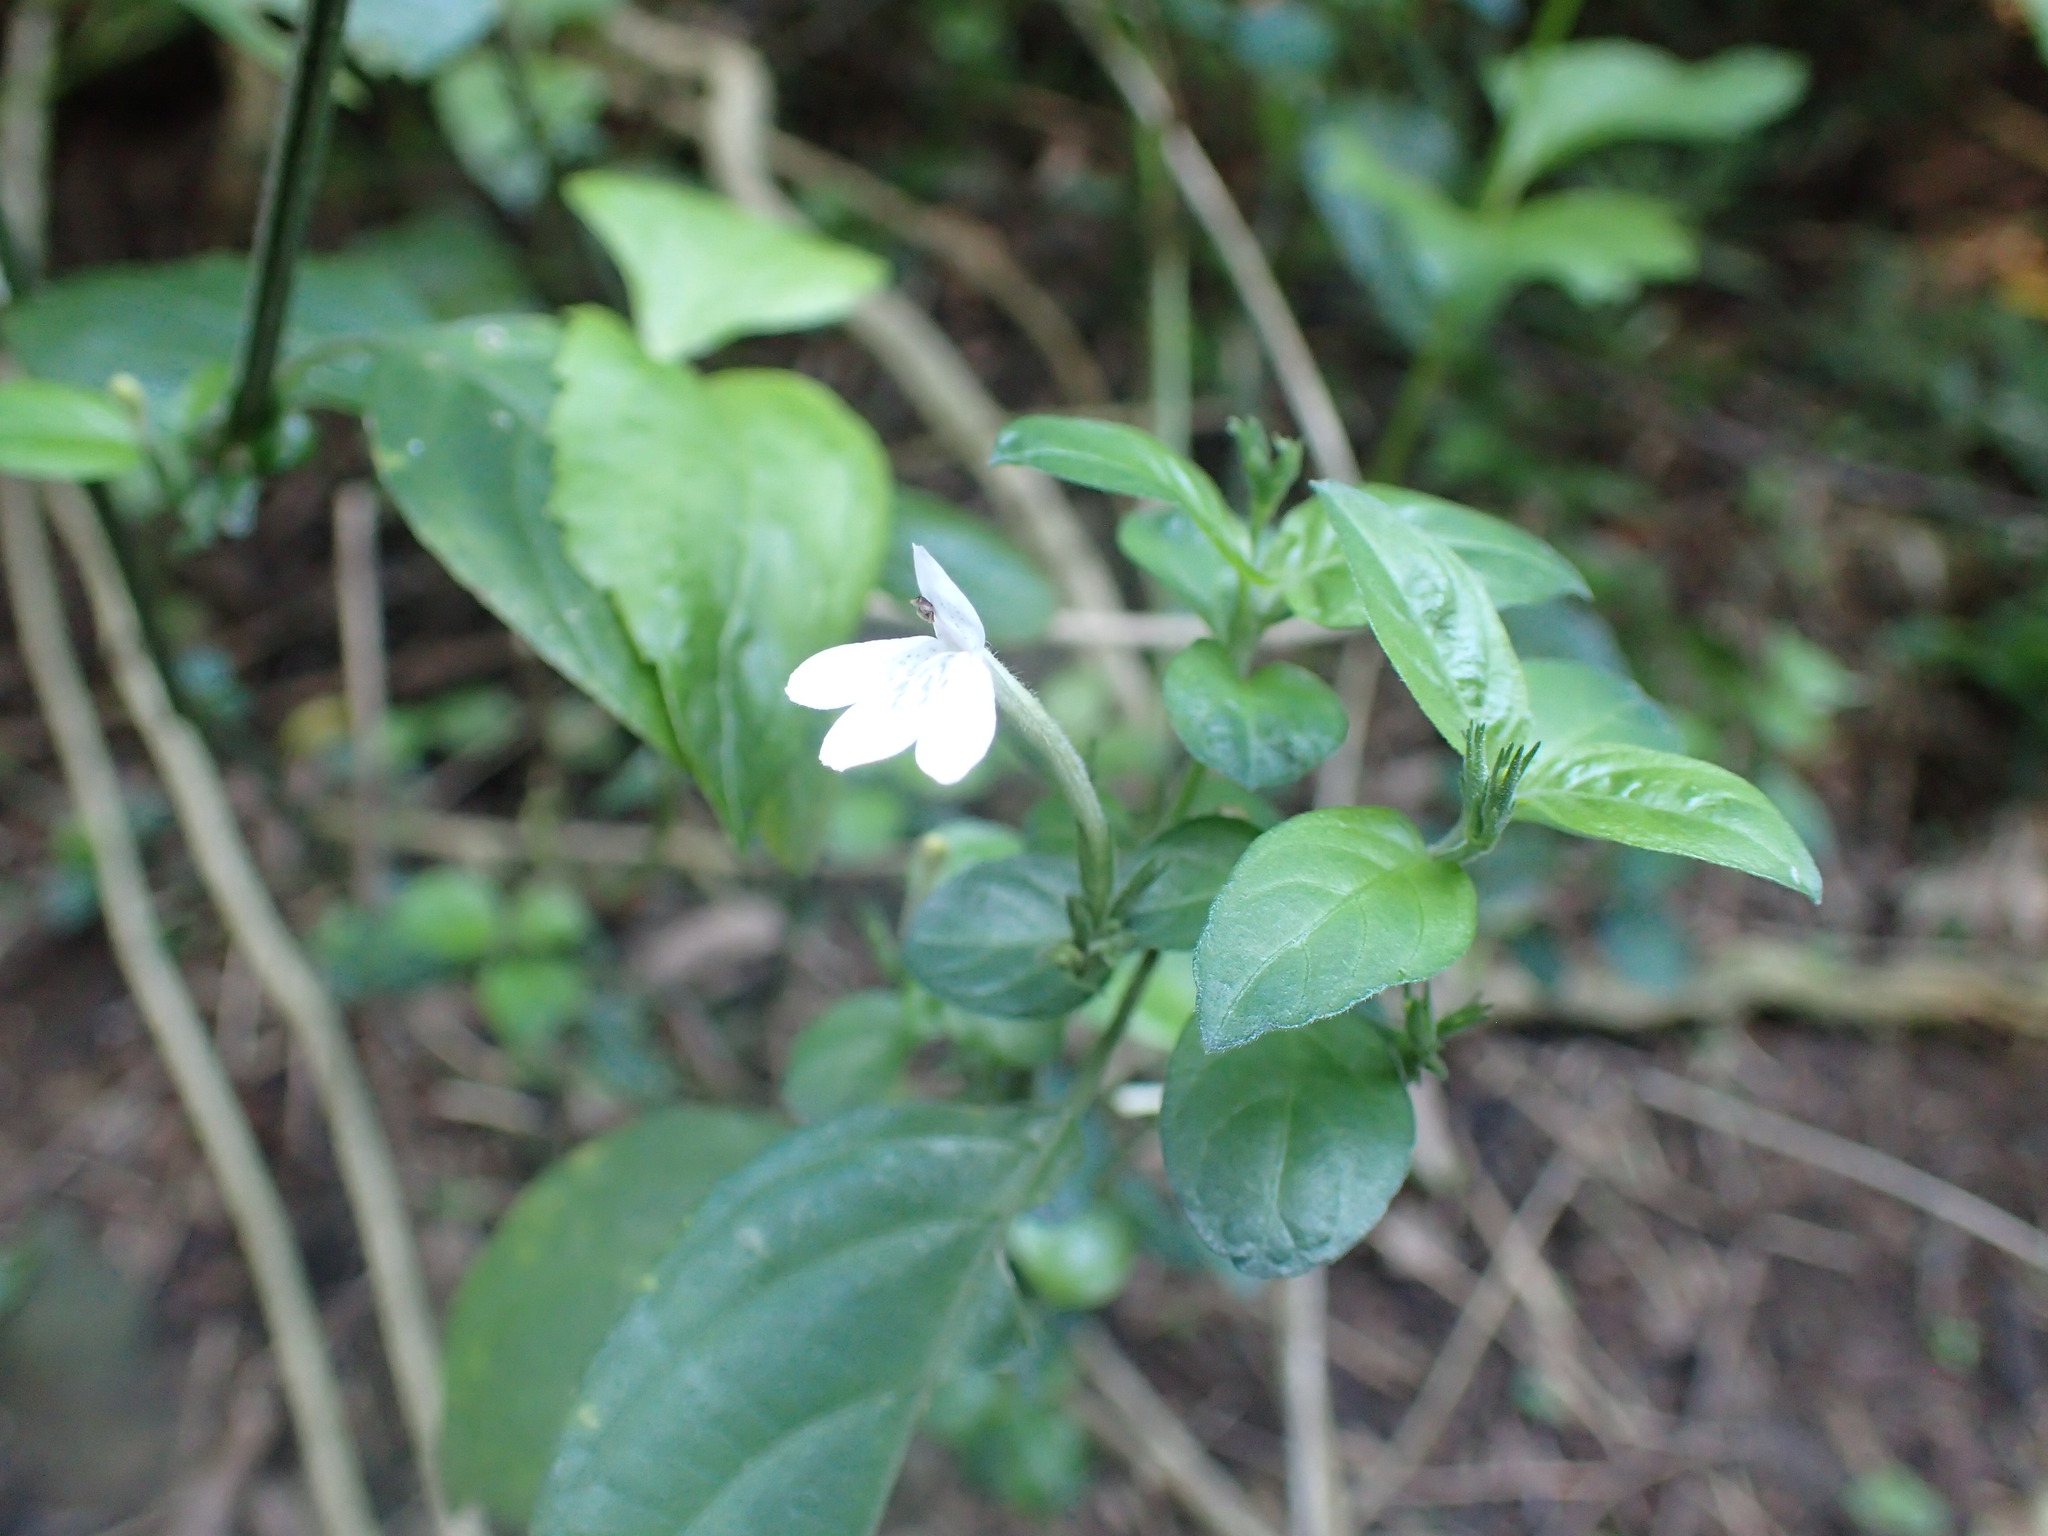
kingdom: Plantae
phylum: Tracheophyta
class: Magnoliopsida
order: Lamiales
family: Acanthaceae
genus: Rhinacanthus
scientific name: Rhinacanthus latilabiatus
